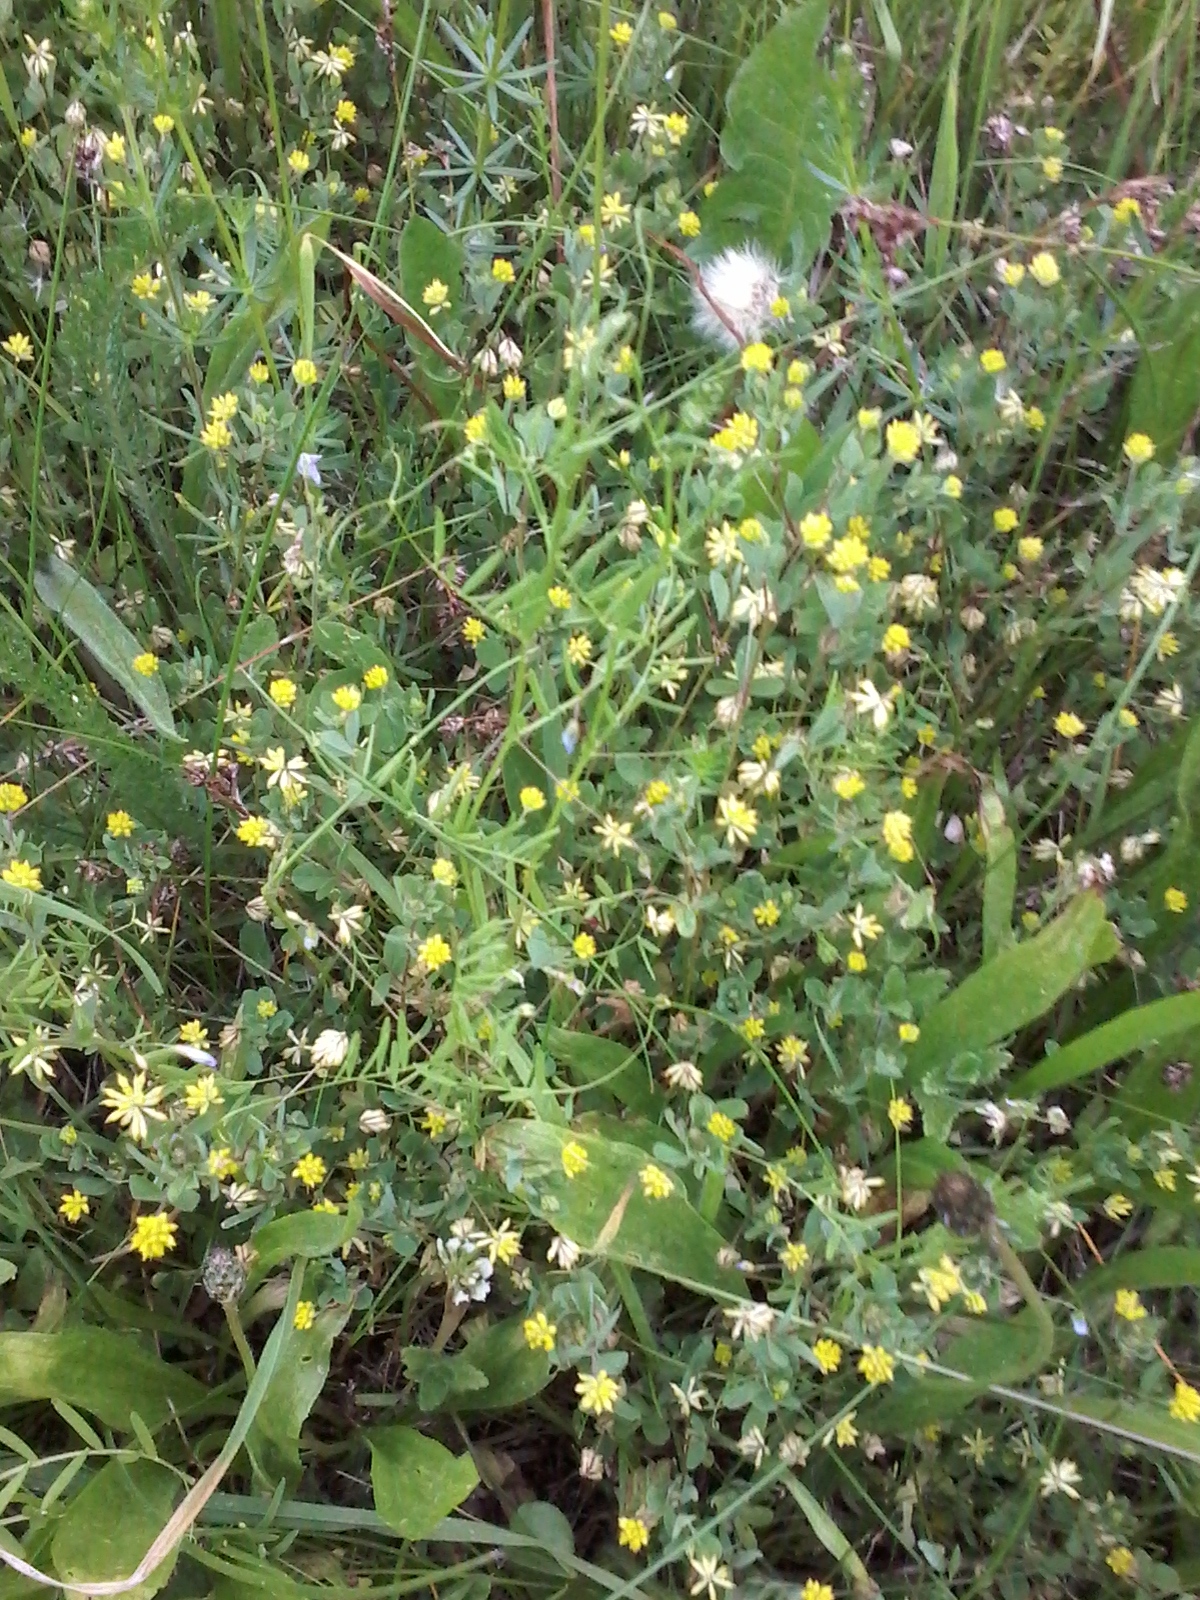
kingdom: Plantae
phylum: Tracheophyta
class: Magnoliopsida
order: Fabales
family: Fabaceae
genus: Trifolium
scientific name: Trifolium dubium
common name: Suckling clover
